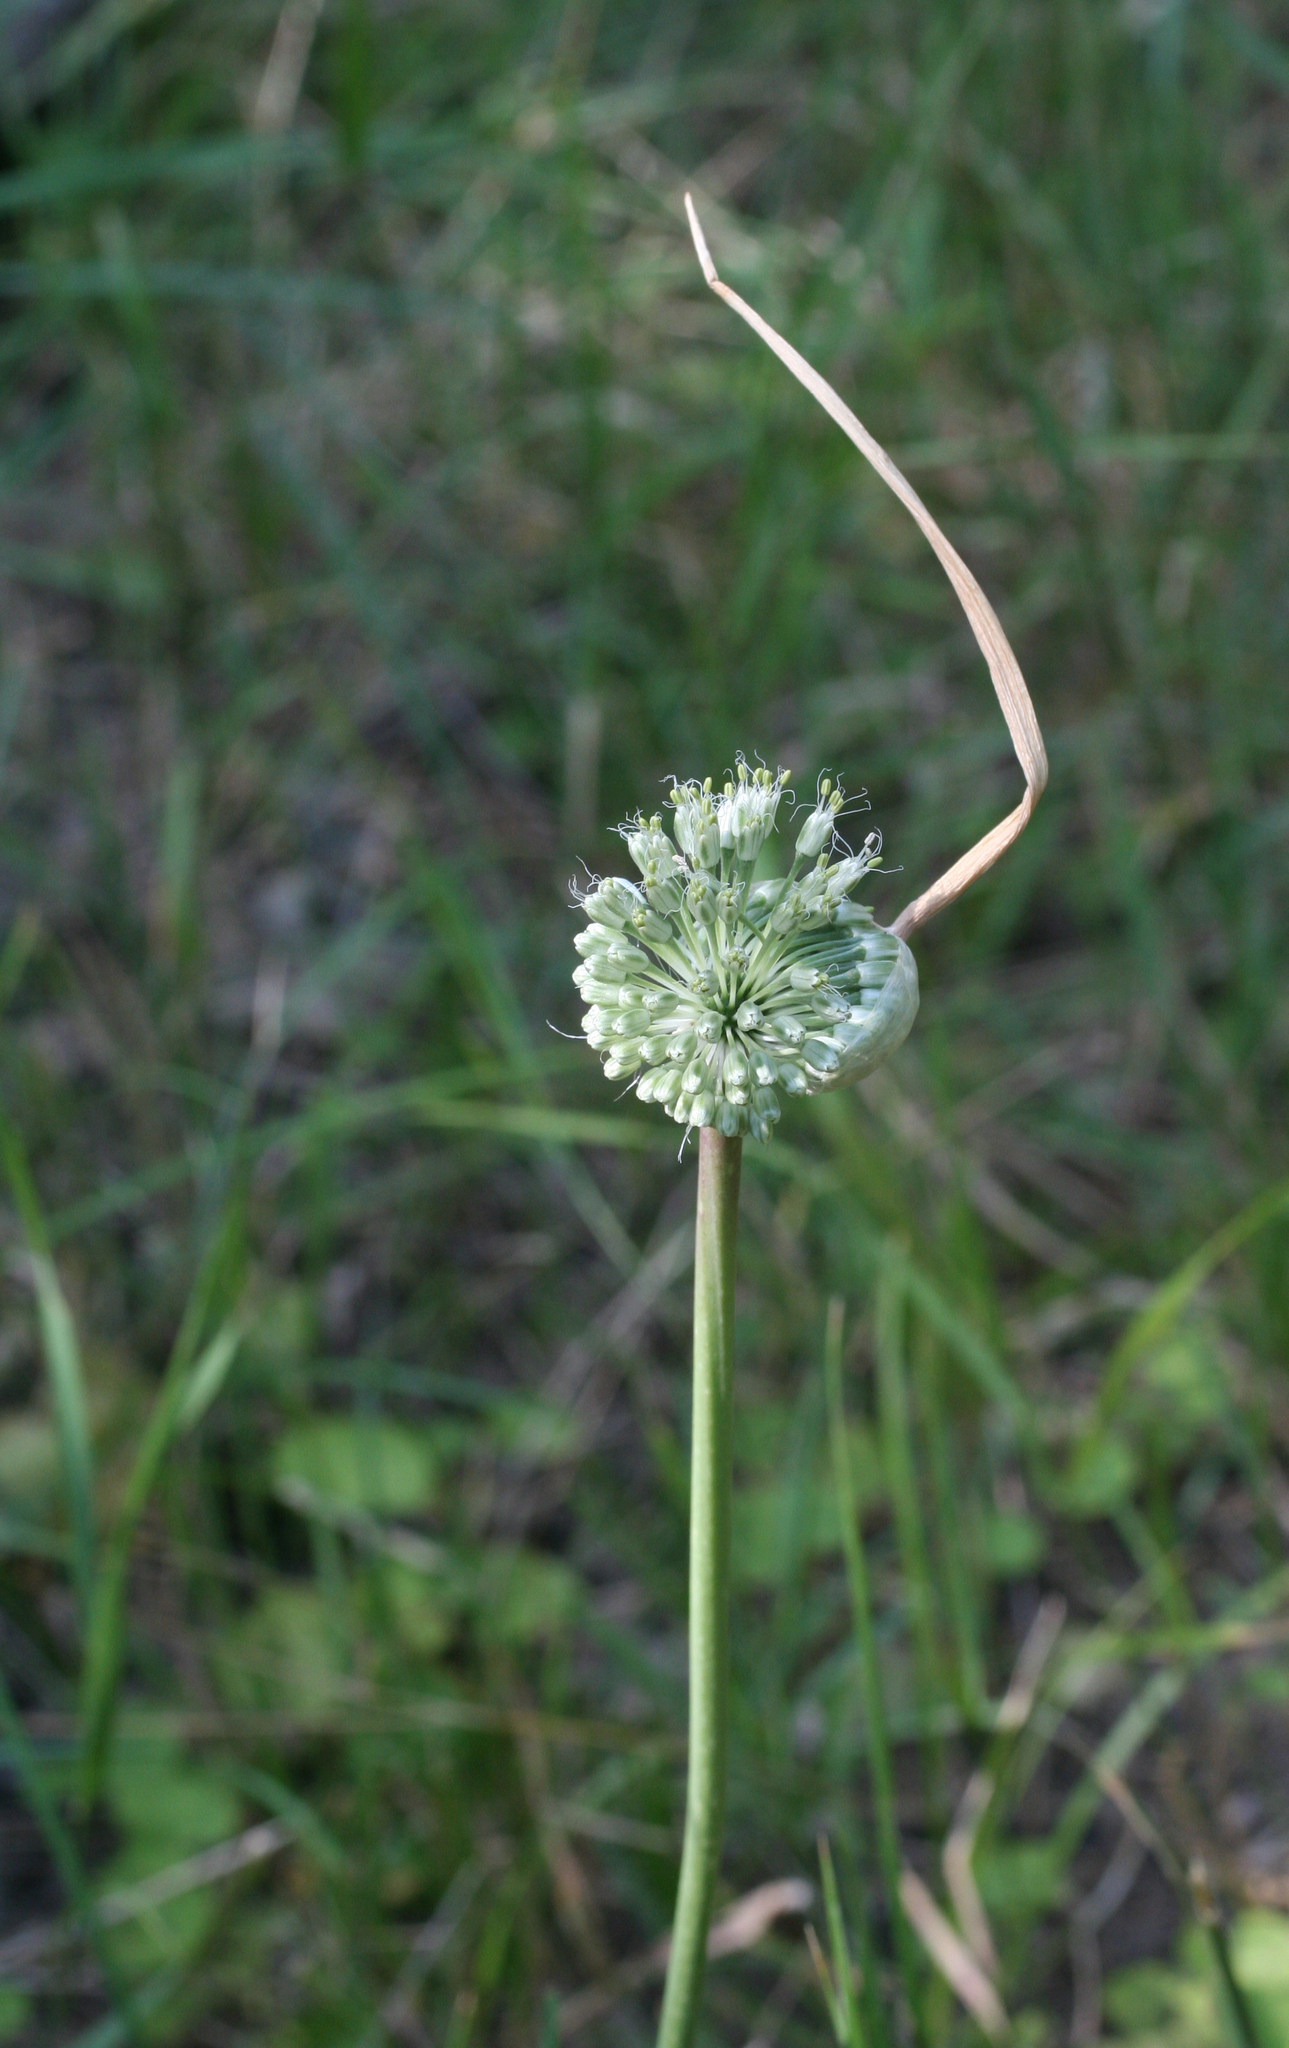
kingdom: Plantae
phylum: Tracheophyta
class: Liliopsida
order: Asparagales
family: Amaryllidaceae
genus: Allium
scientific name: Allium affine
